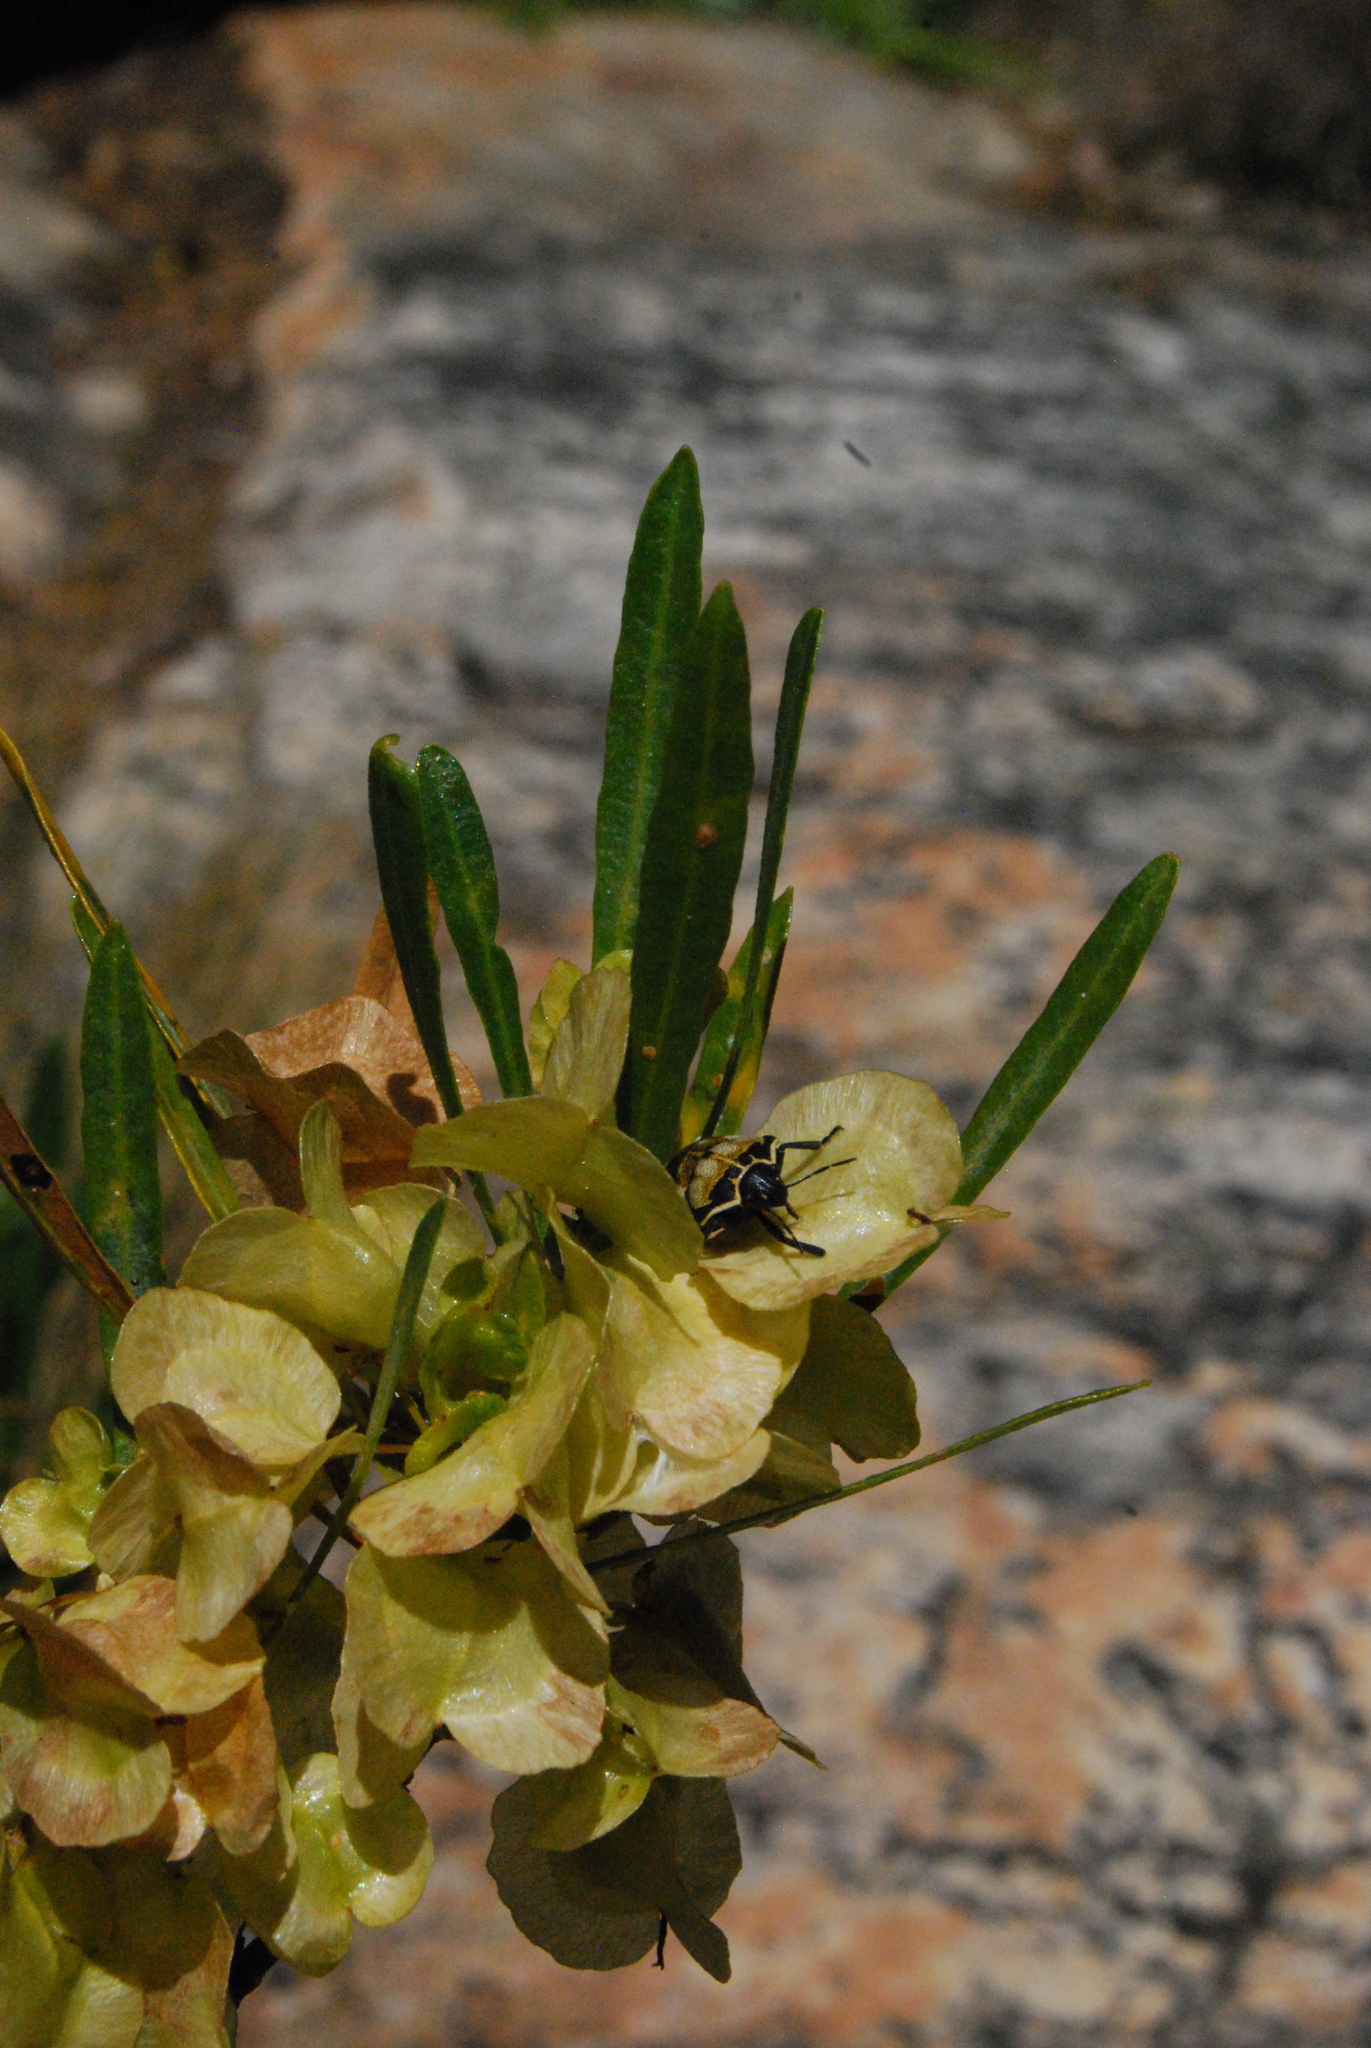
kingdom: Plantae
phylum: Tracheophyta
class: Magnoliopsida
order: Sapindales
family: Sapindaceae
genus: Dodonaea
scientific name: Dodonaea viscosa
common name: Hopbush
